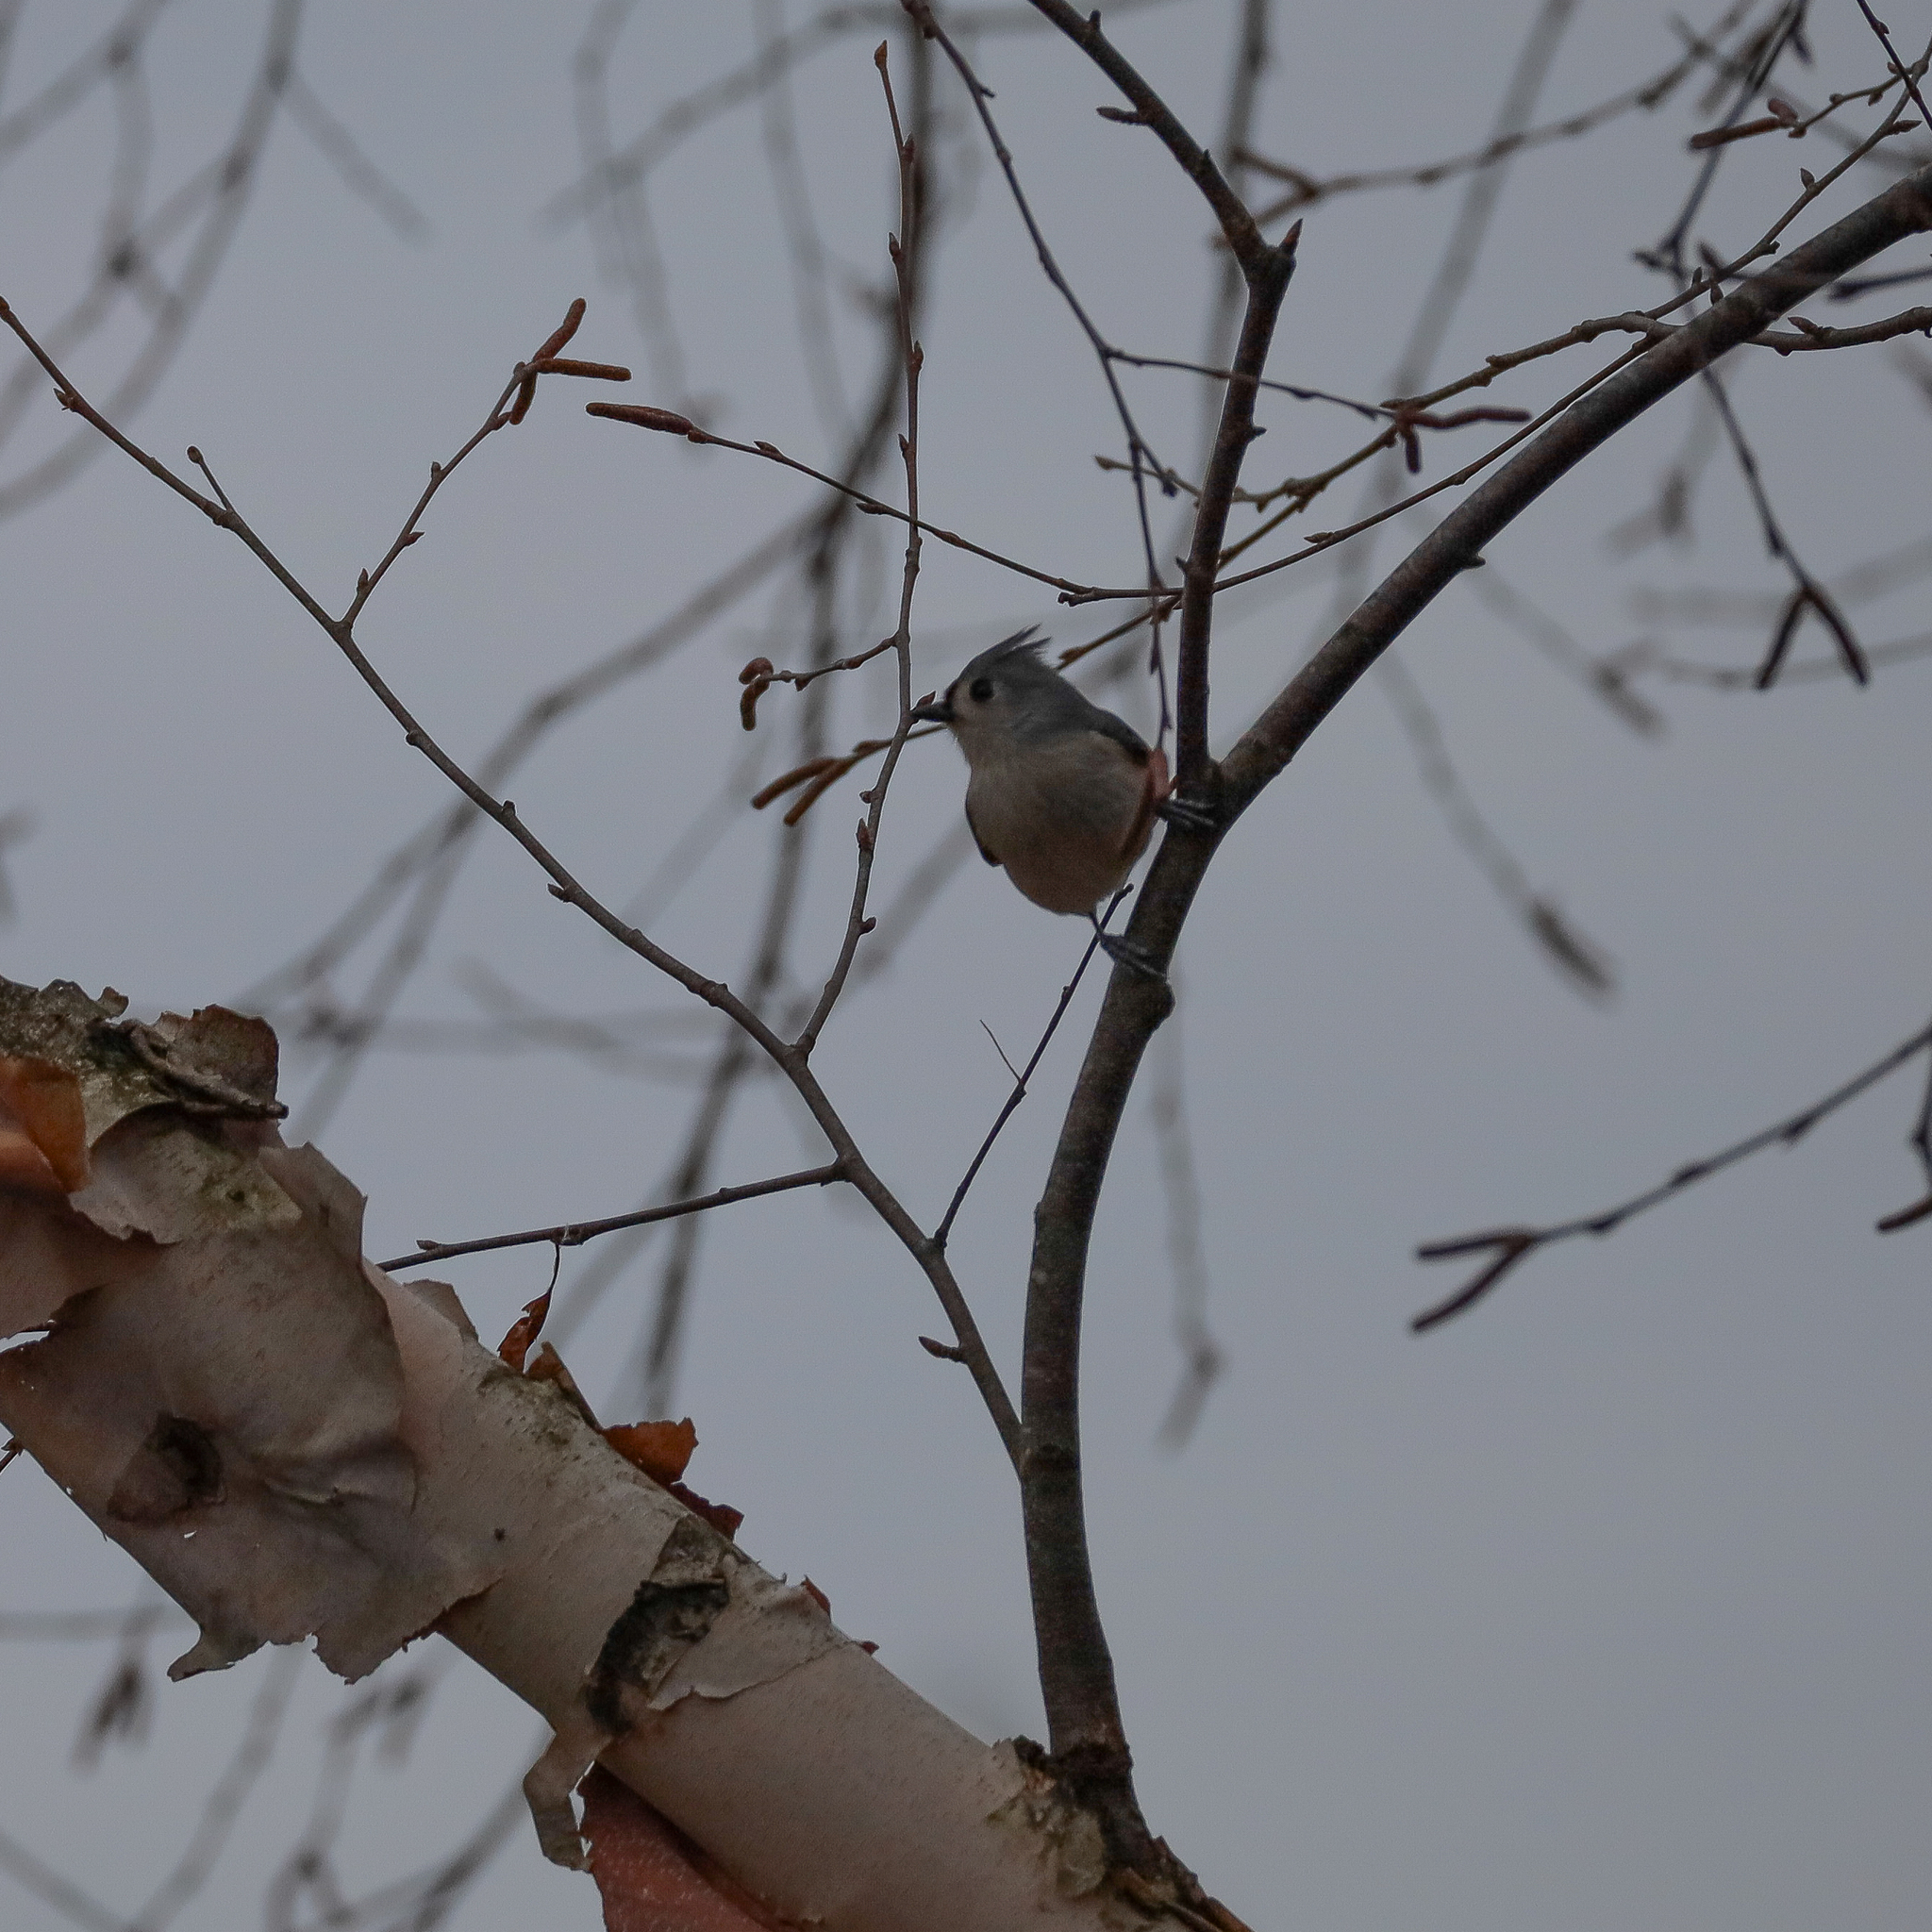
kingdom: Animalia
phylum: Chordata
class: Aves
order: Passeriformes
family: Paridae
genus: Baeolophus
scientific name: Baeolophus bicolor
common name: Tufted titmouse
